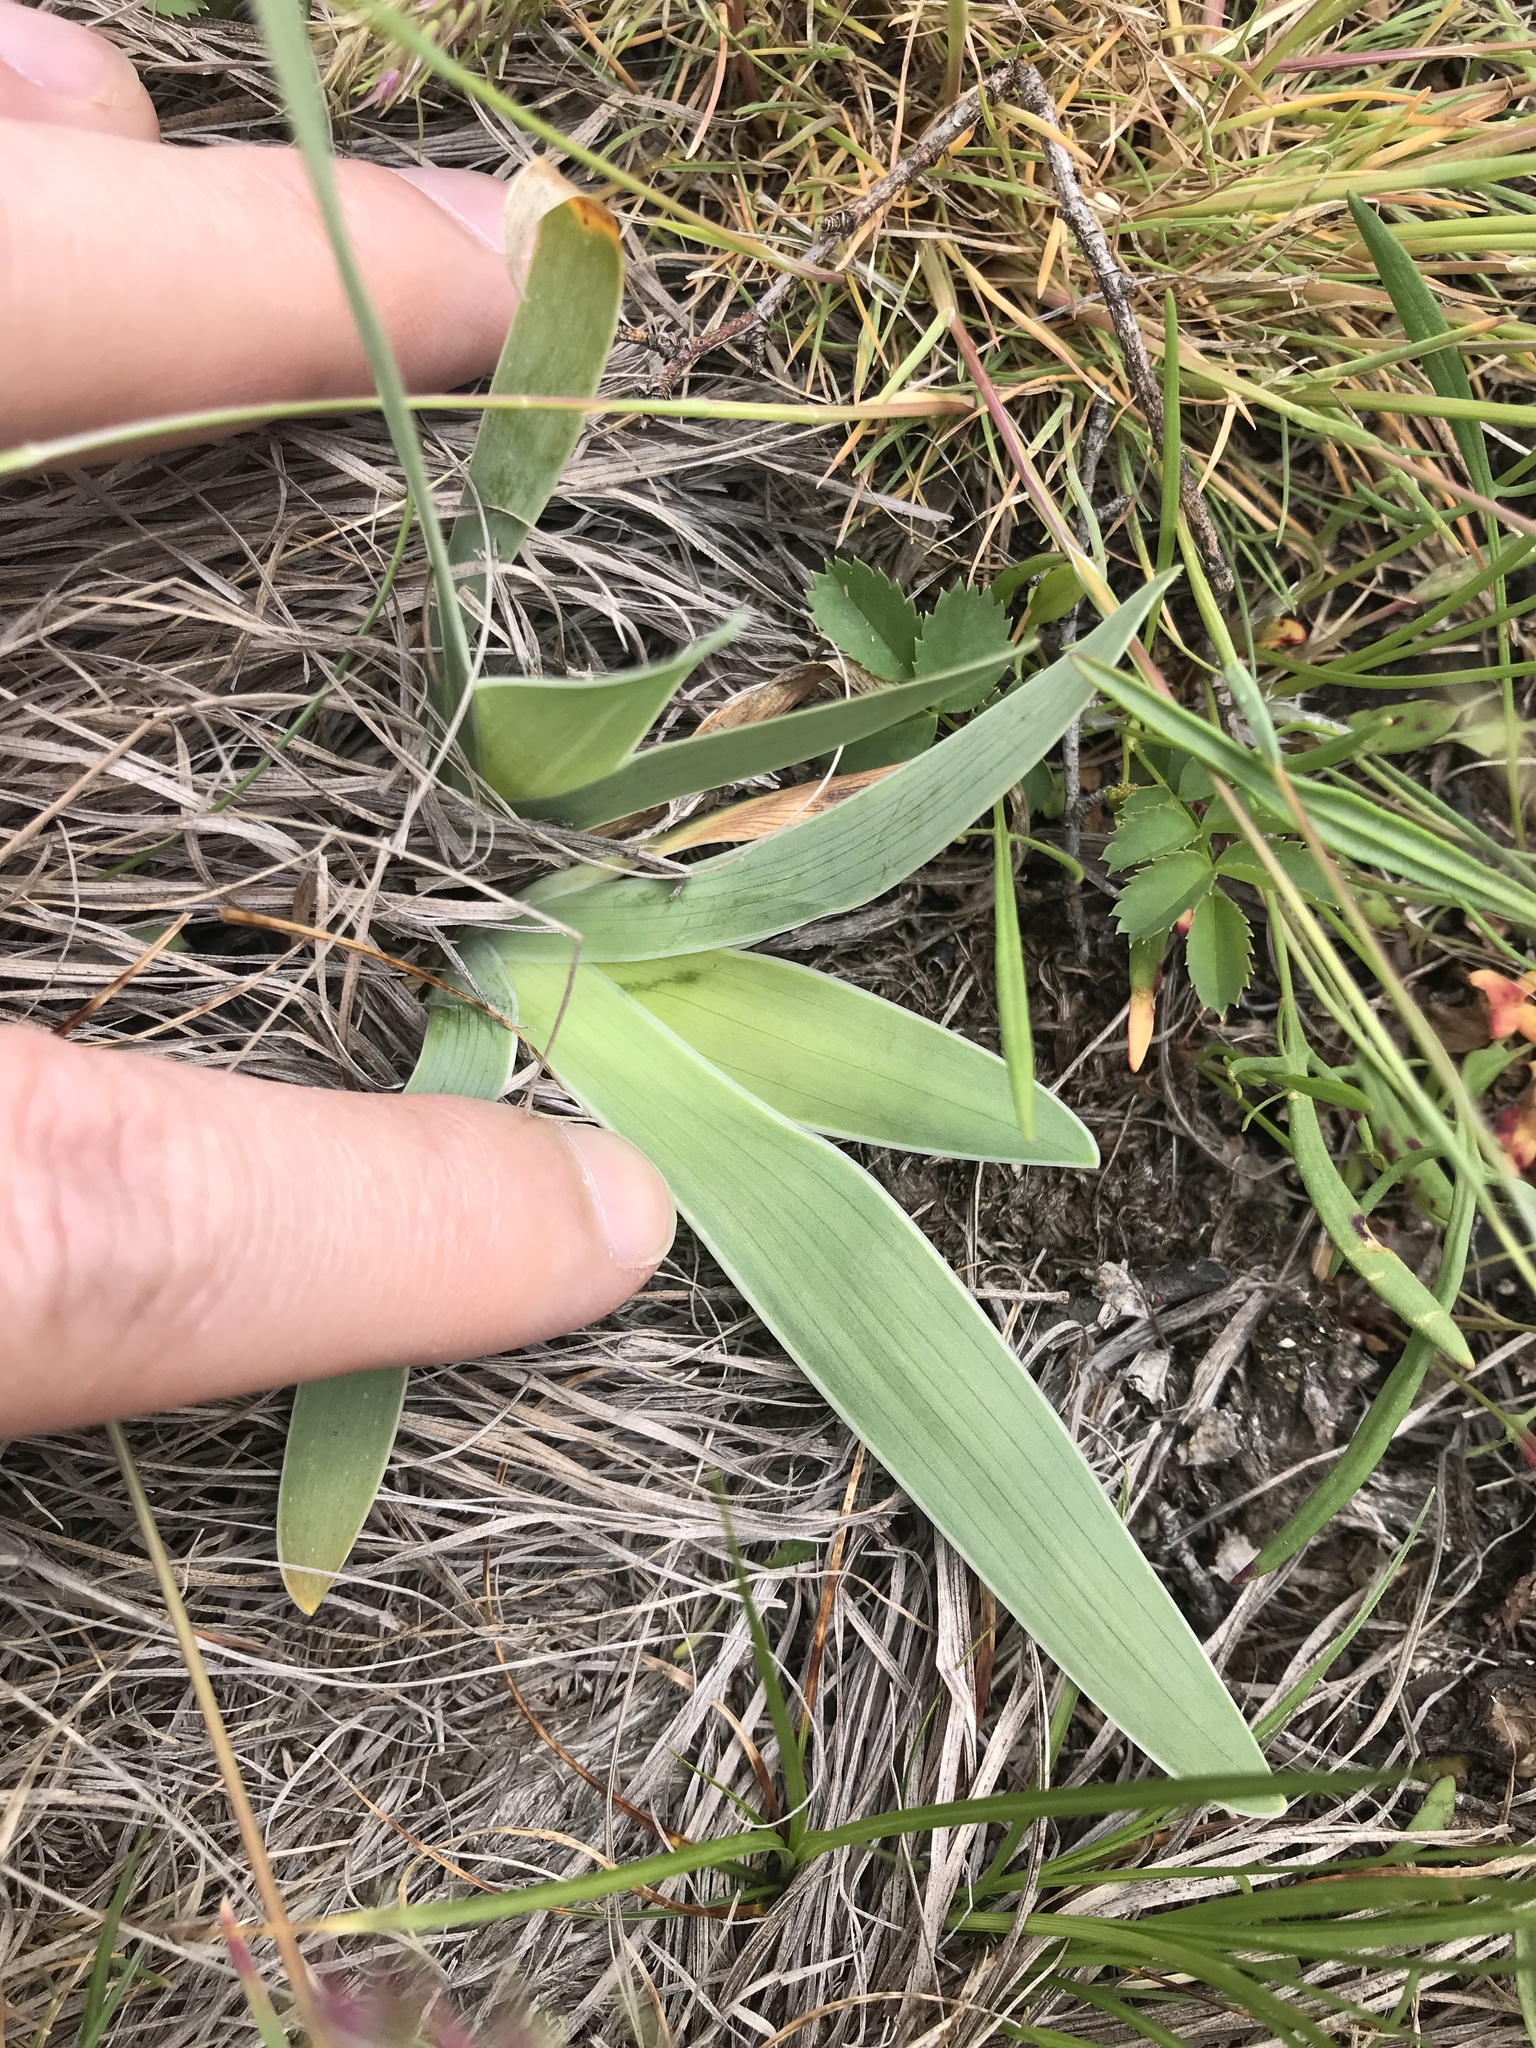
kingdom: Plantae
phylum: Tracheophyta
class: Liliopsida
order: Asparagales
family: Iridaceae
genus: Iris
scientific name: Iris pumila
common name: Dwarf iris
